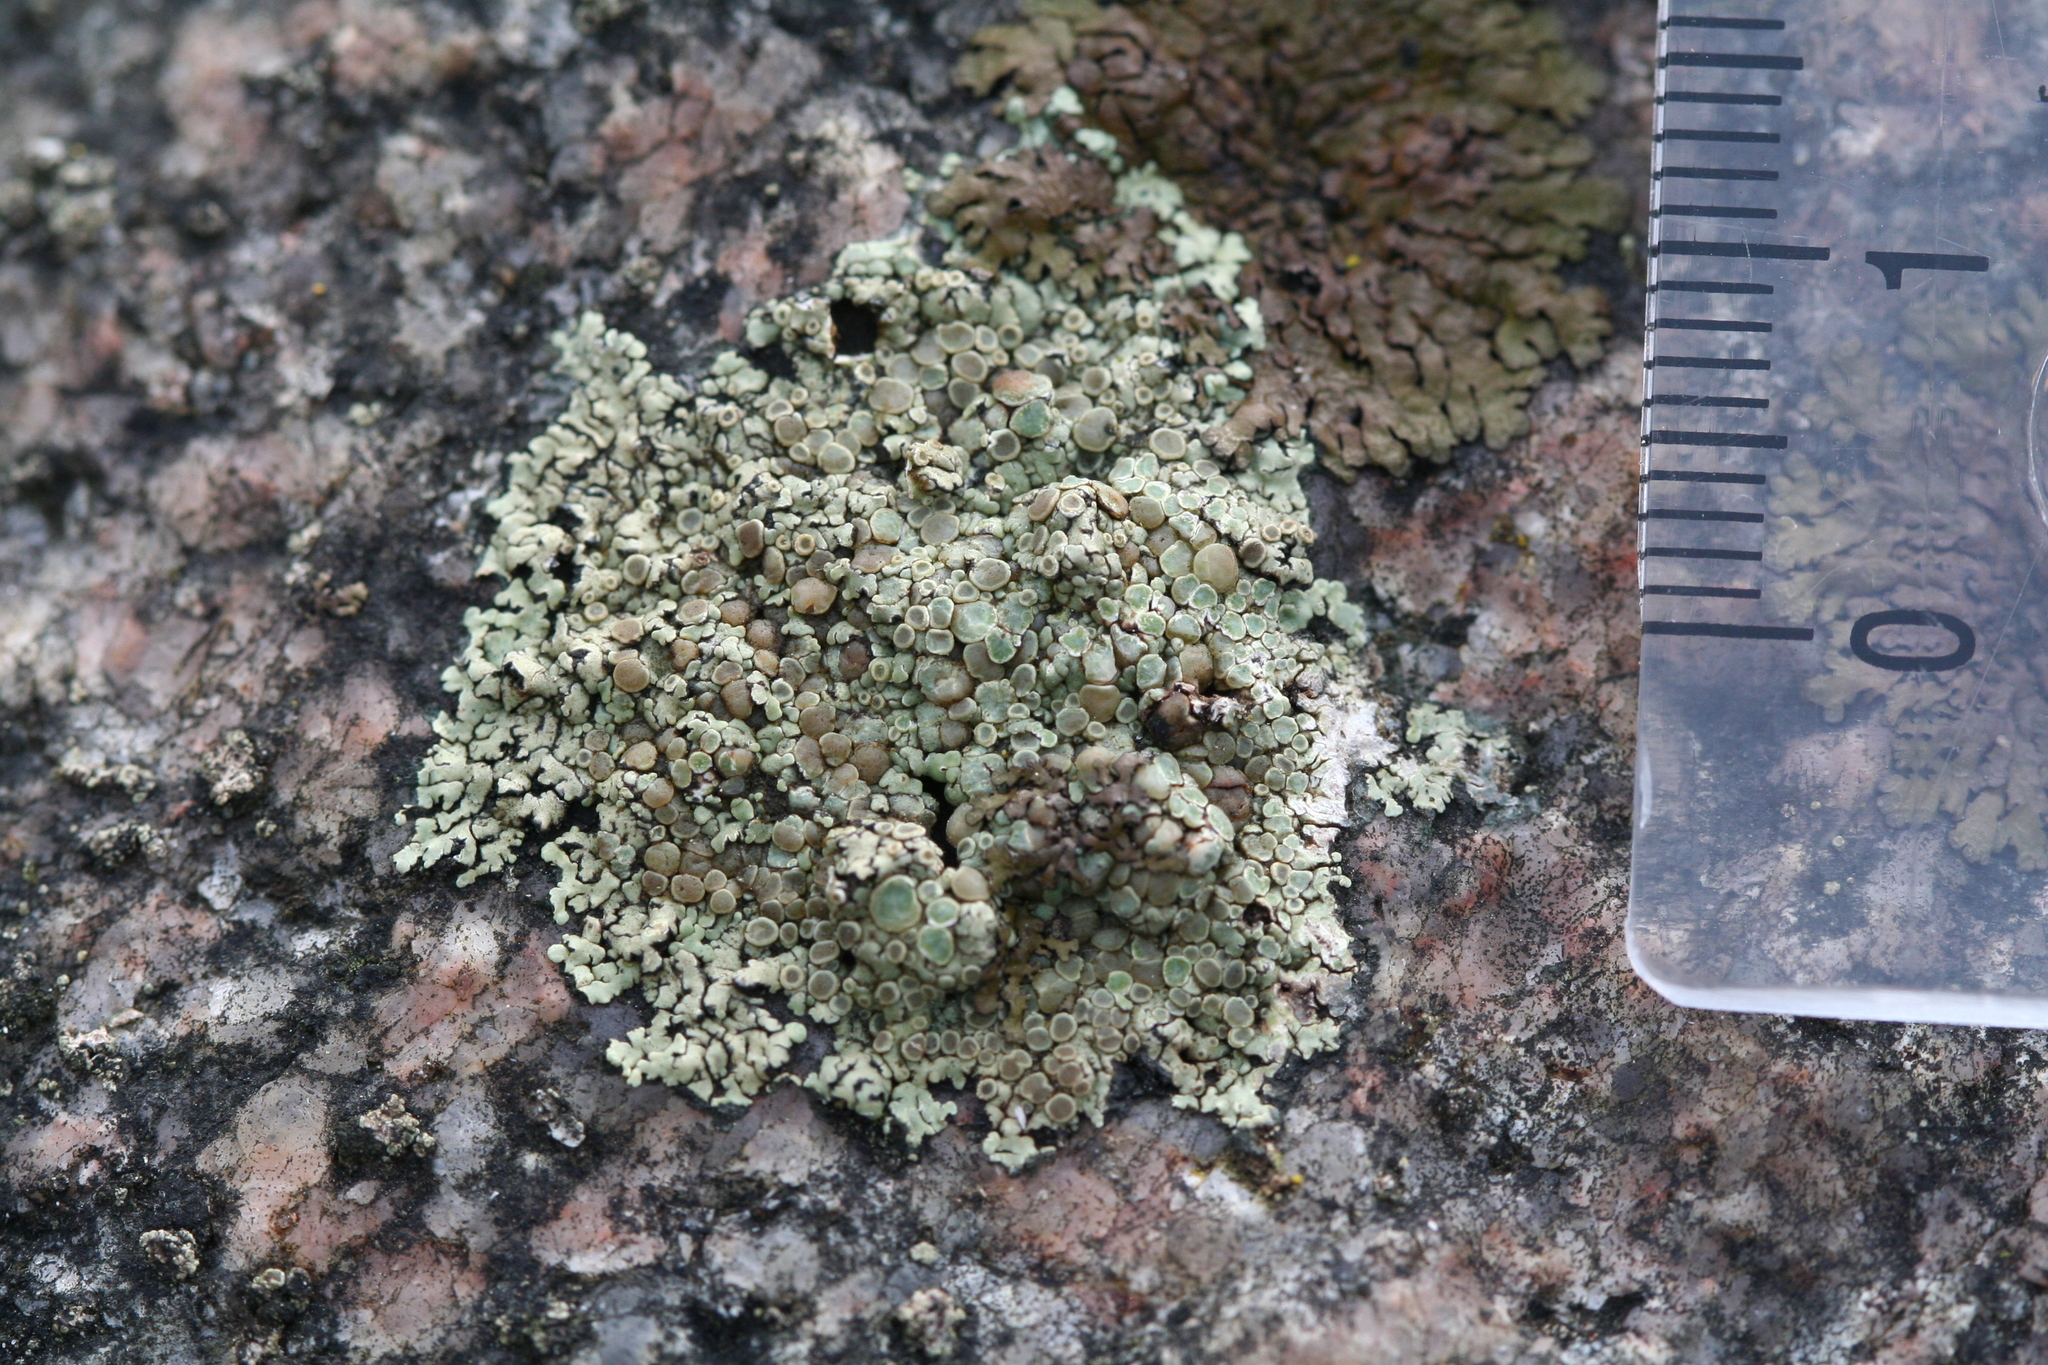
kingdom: Fungi
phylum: Ascomycota
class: Lecanoromycetes
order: Lecanorales
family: Lecanoraceae
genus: Protoparmeliopsis
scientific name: Protoparmeliopsis muralis
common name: Stonewall rim lichen
